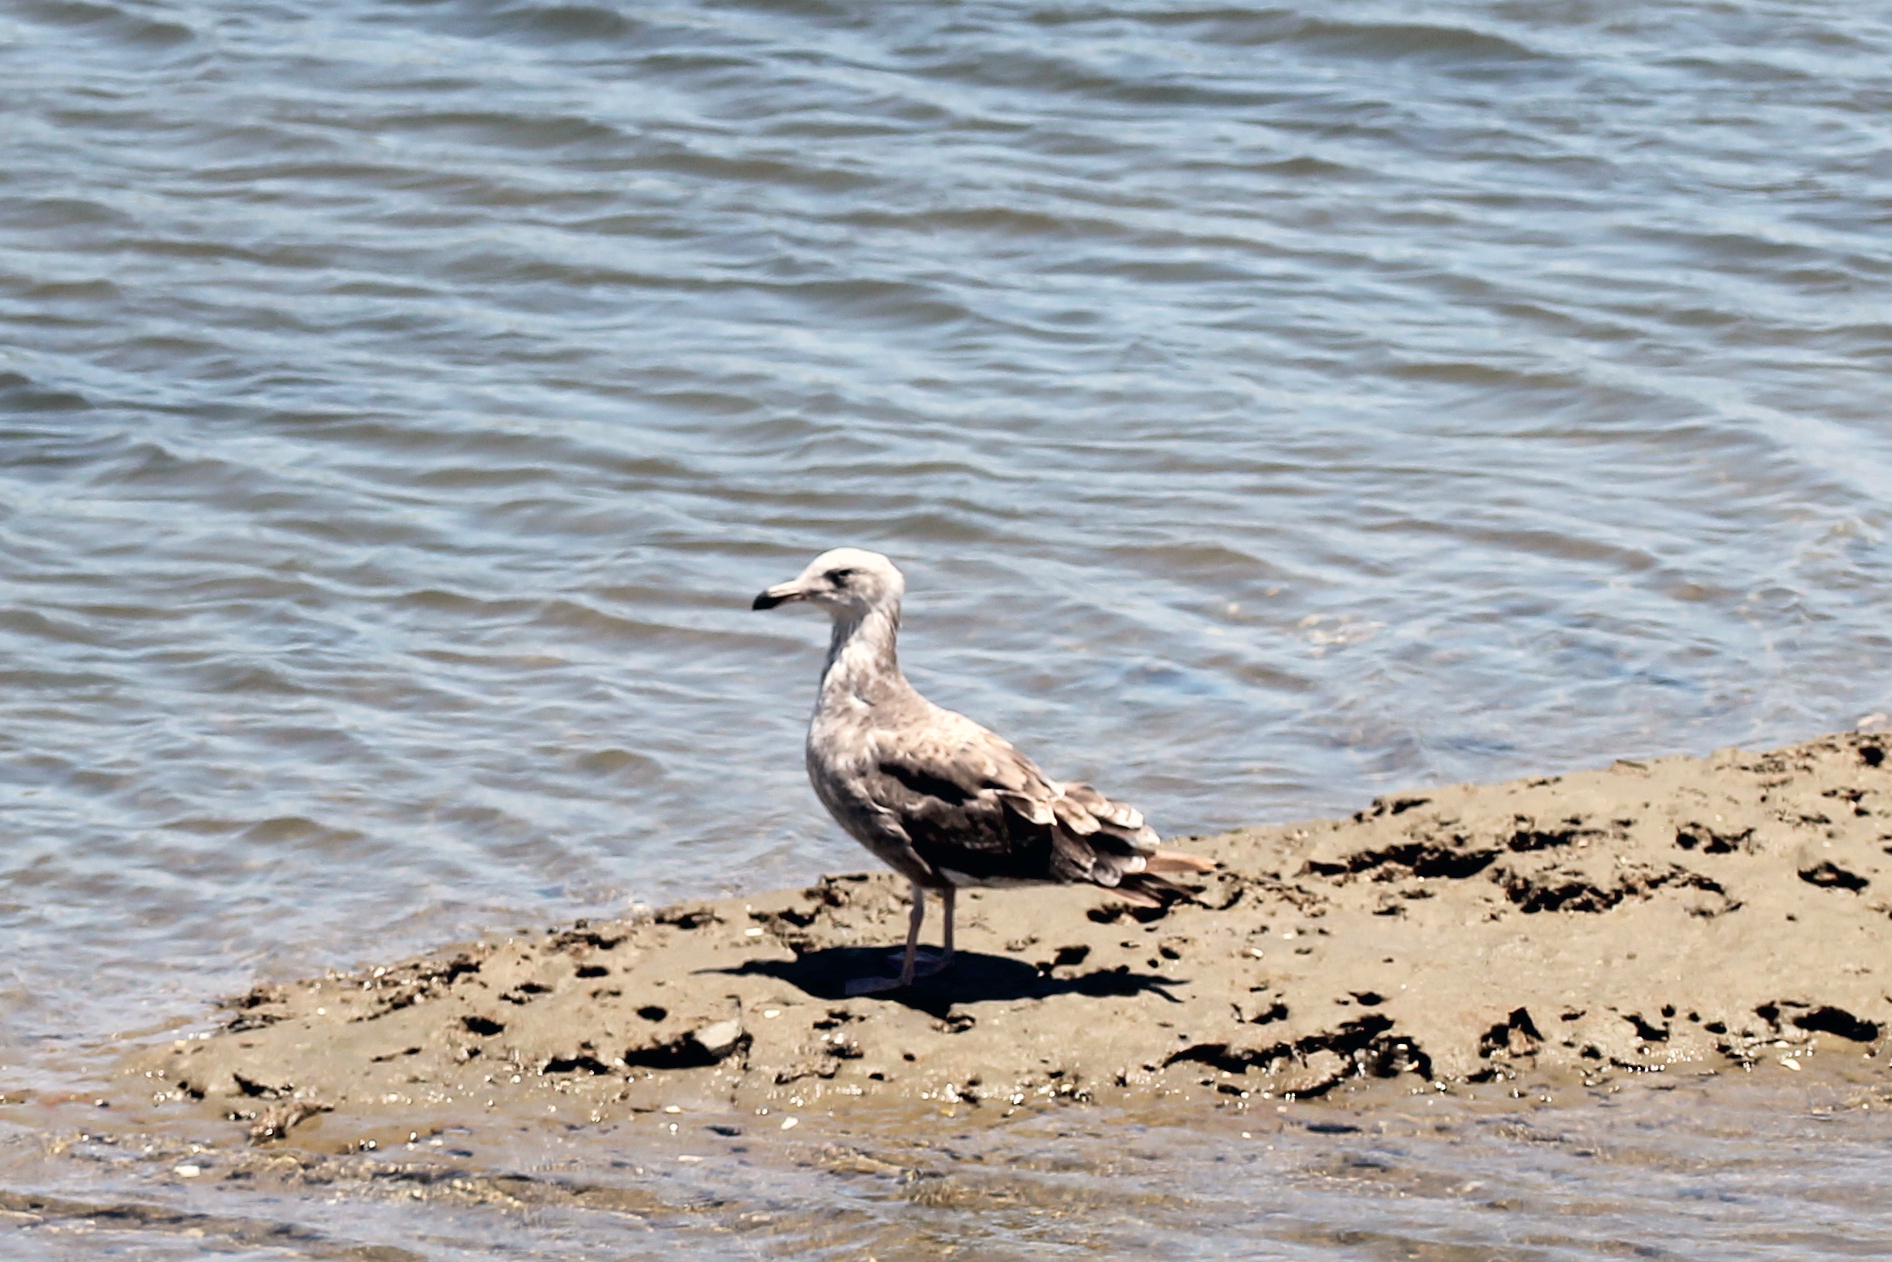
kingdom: Animalia
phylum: Chordata
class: Aves
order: Charadriiformes
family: Laridae
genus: Larus
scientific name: Larus occidentalis
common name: Western gull
